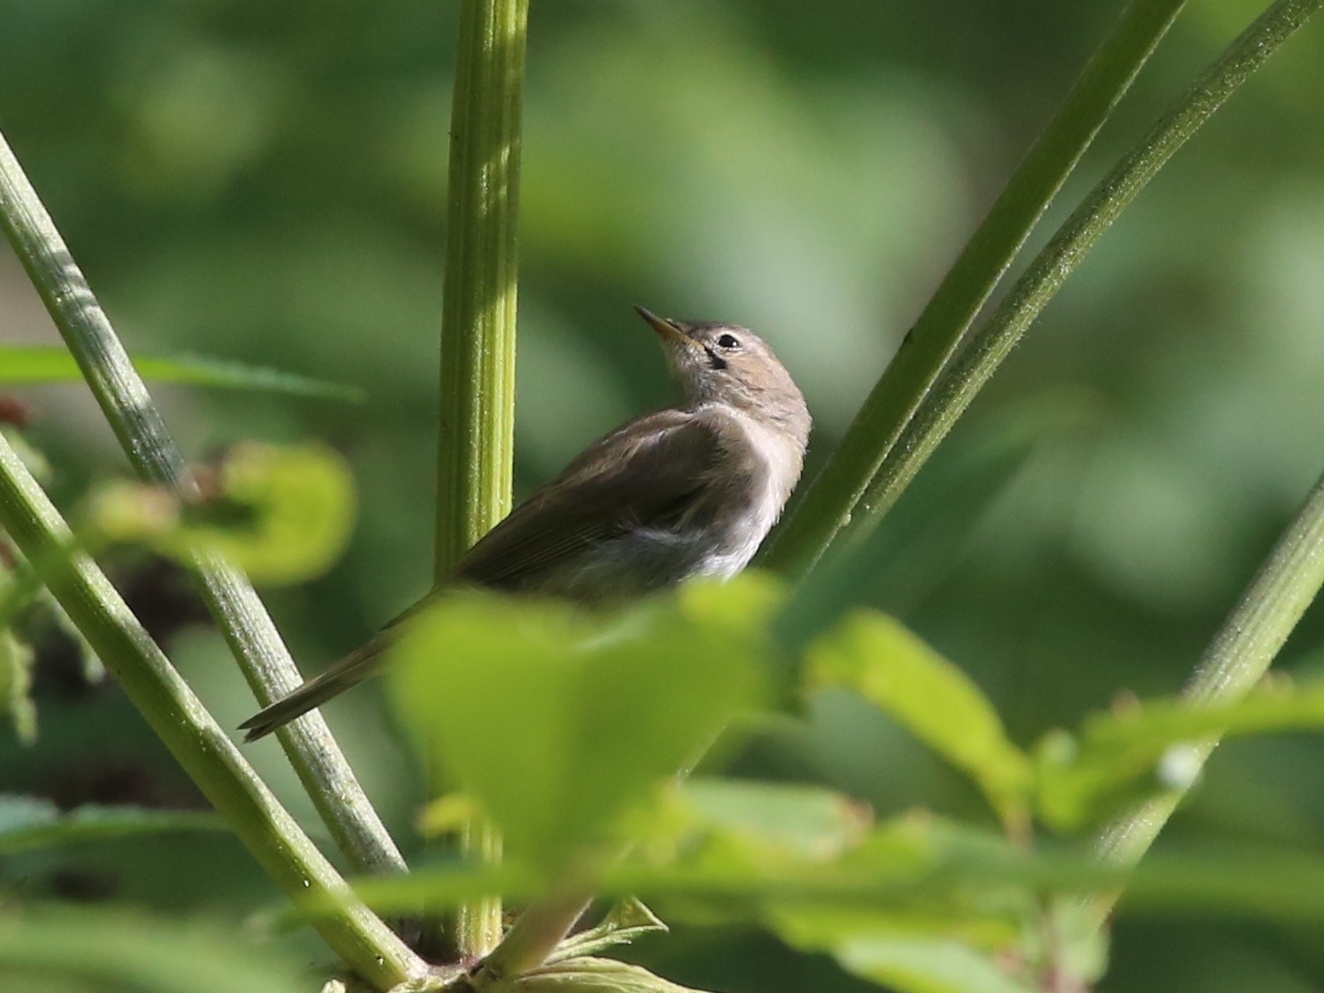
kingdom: Animalia
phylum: Chordata
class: Aves
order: Passeriformes
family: Phylloscopidae
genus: Phylloscopus
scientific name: Phylloscopus collybita
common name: Common chiffchaff
